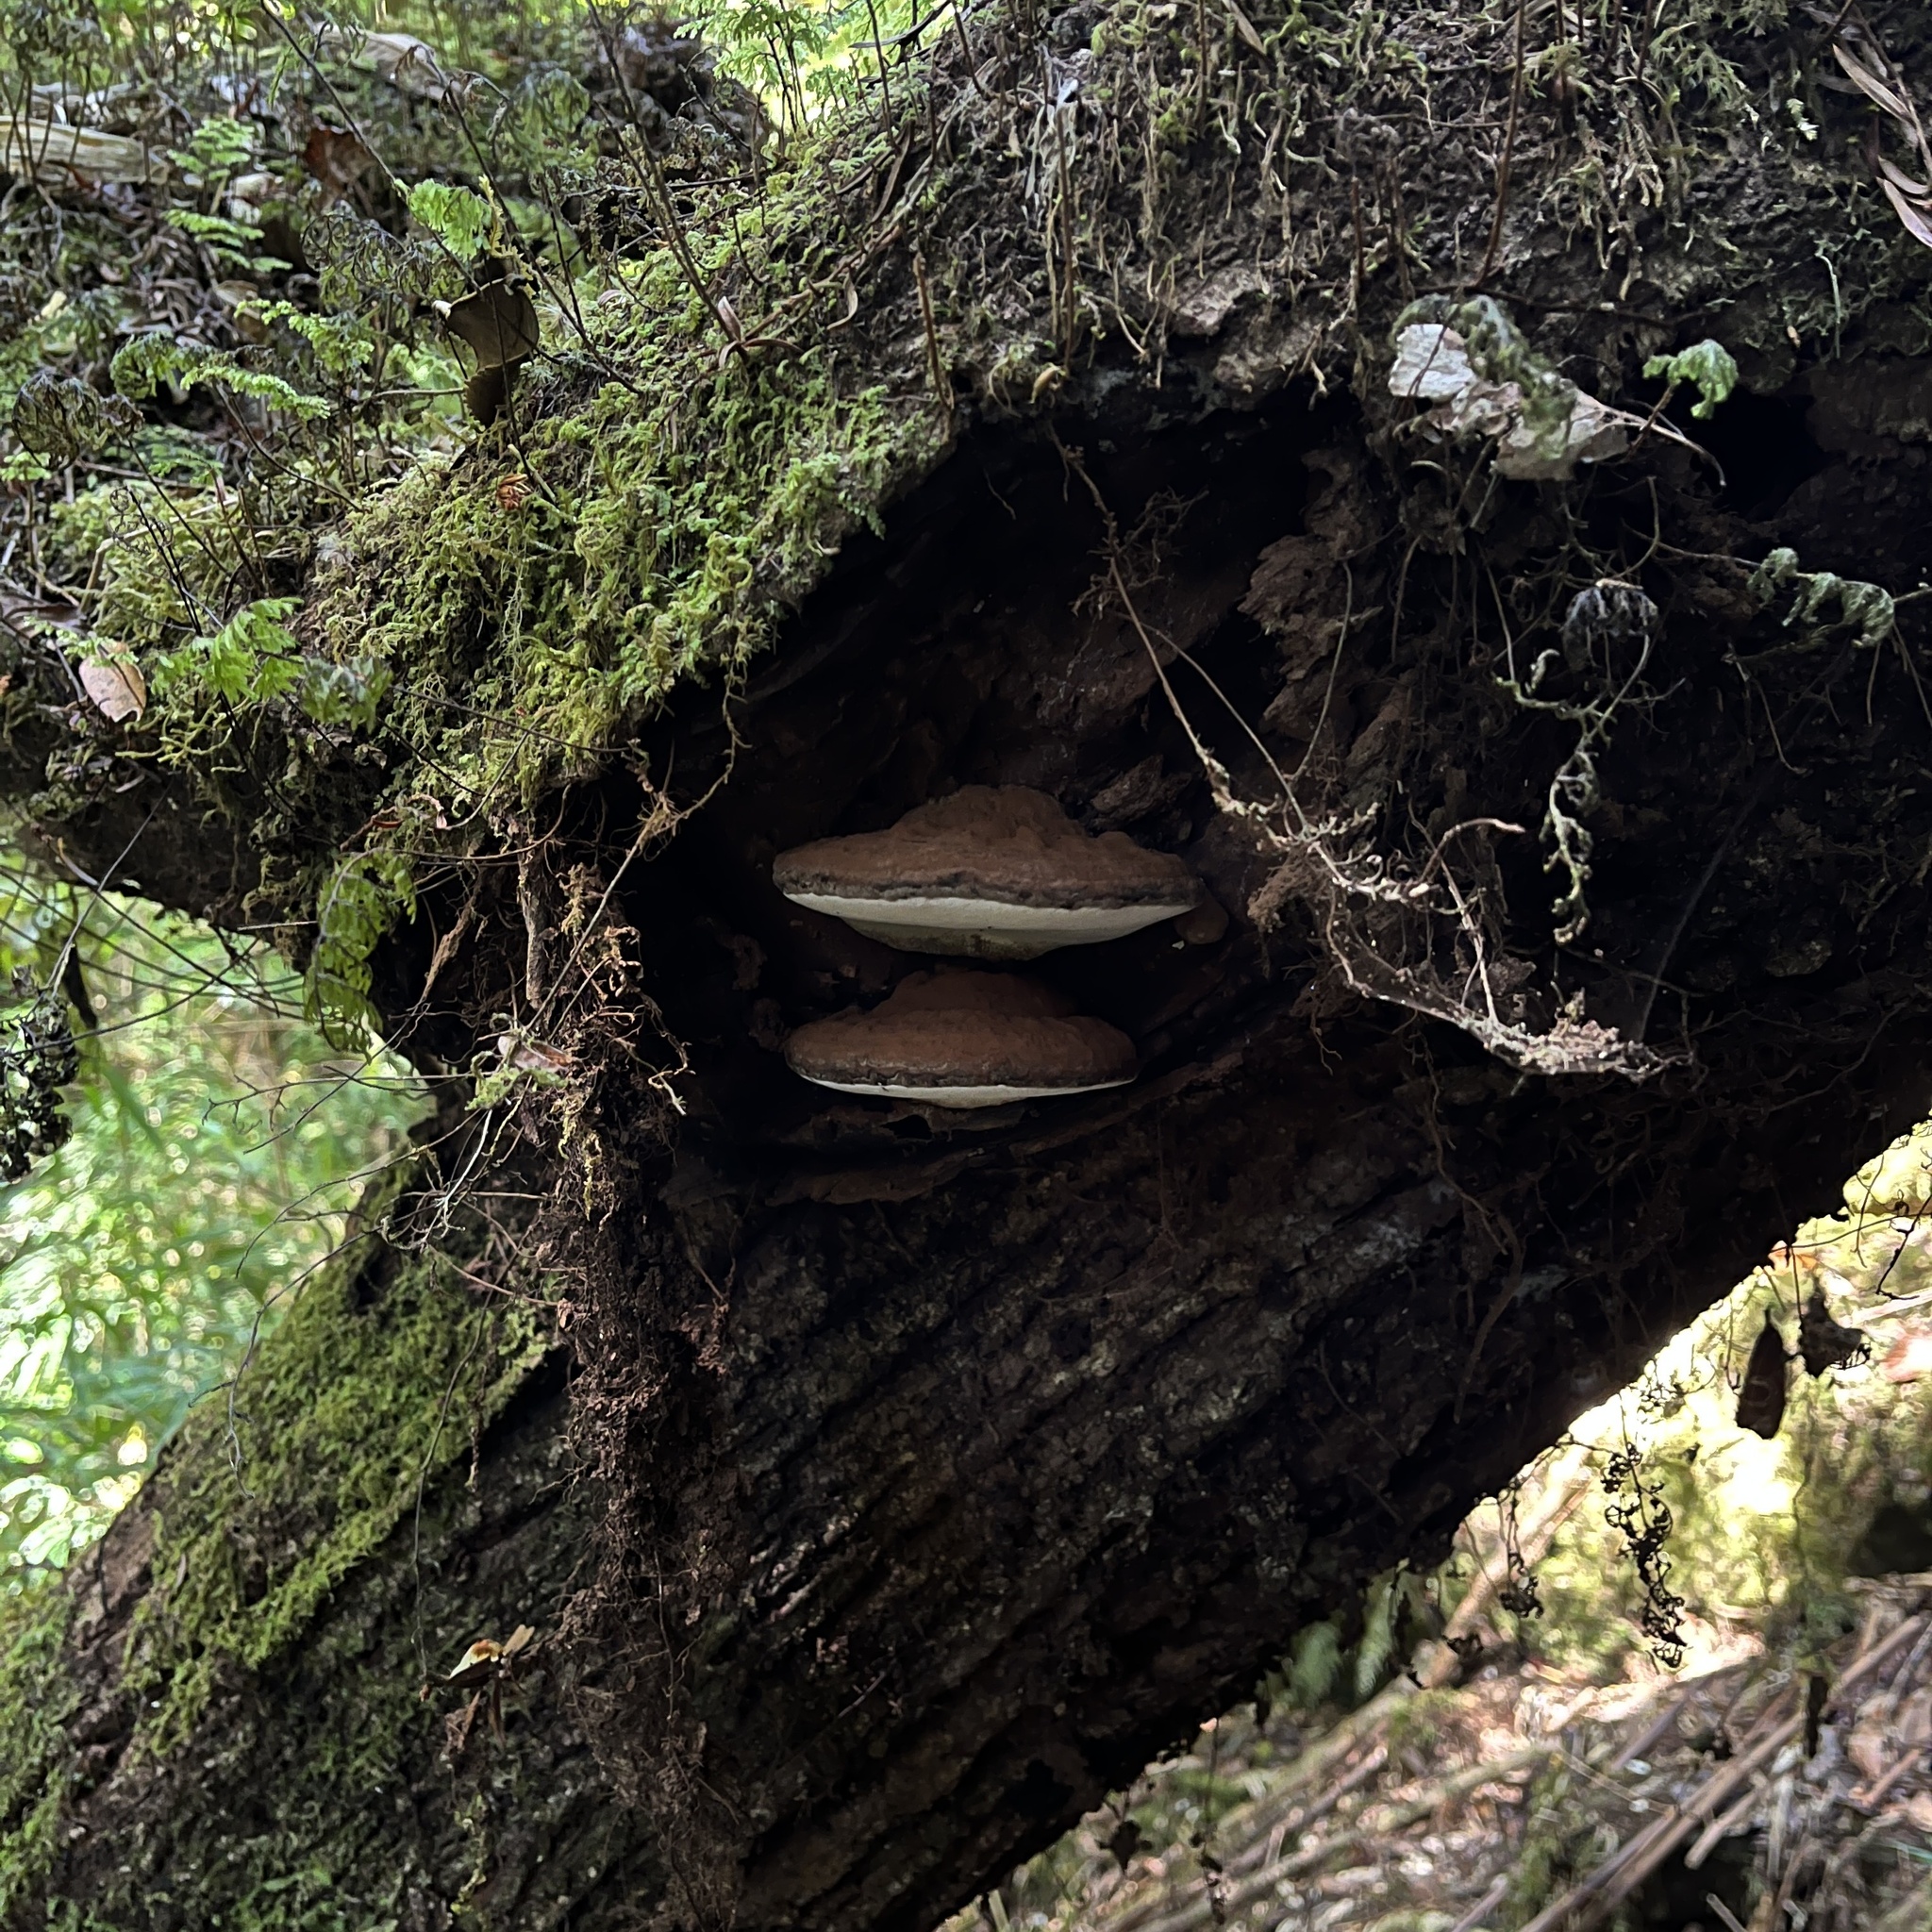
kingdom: Fungi
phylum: Basidiomycota
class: Agaricomycetes
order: Polyporales
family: Polyporaceae
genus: Ganoderma
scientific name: Ganoderma australe
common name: Southern bracket
